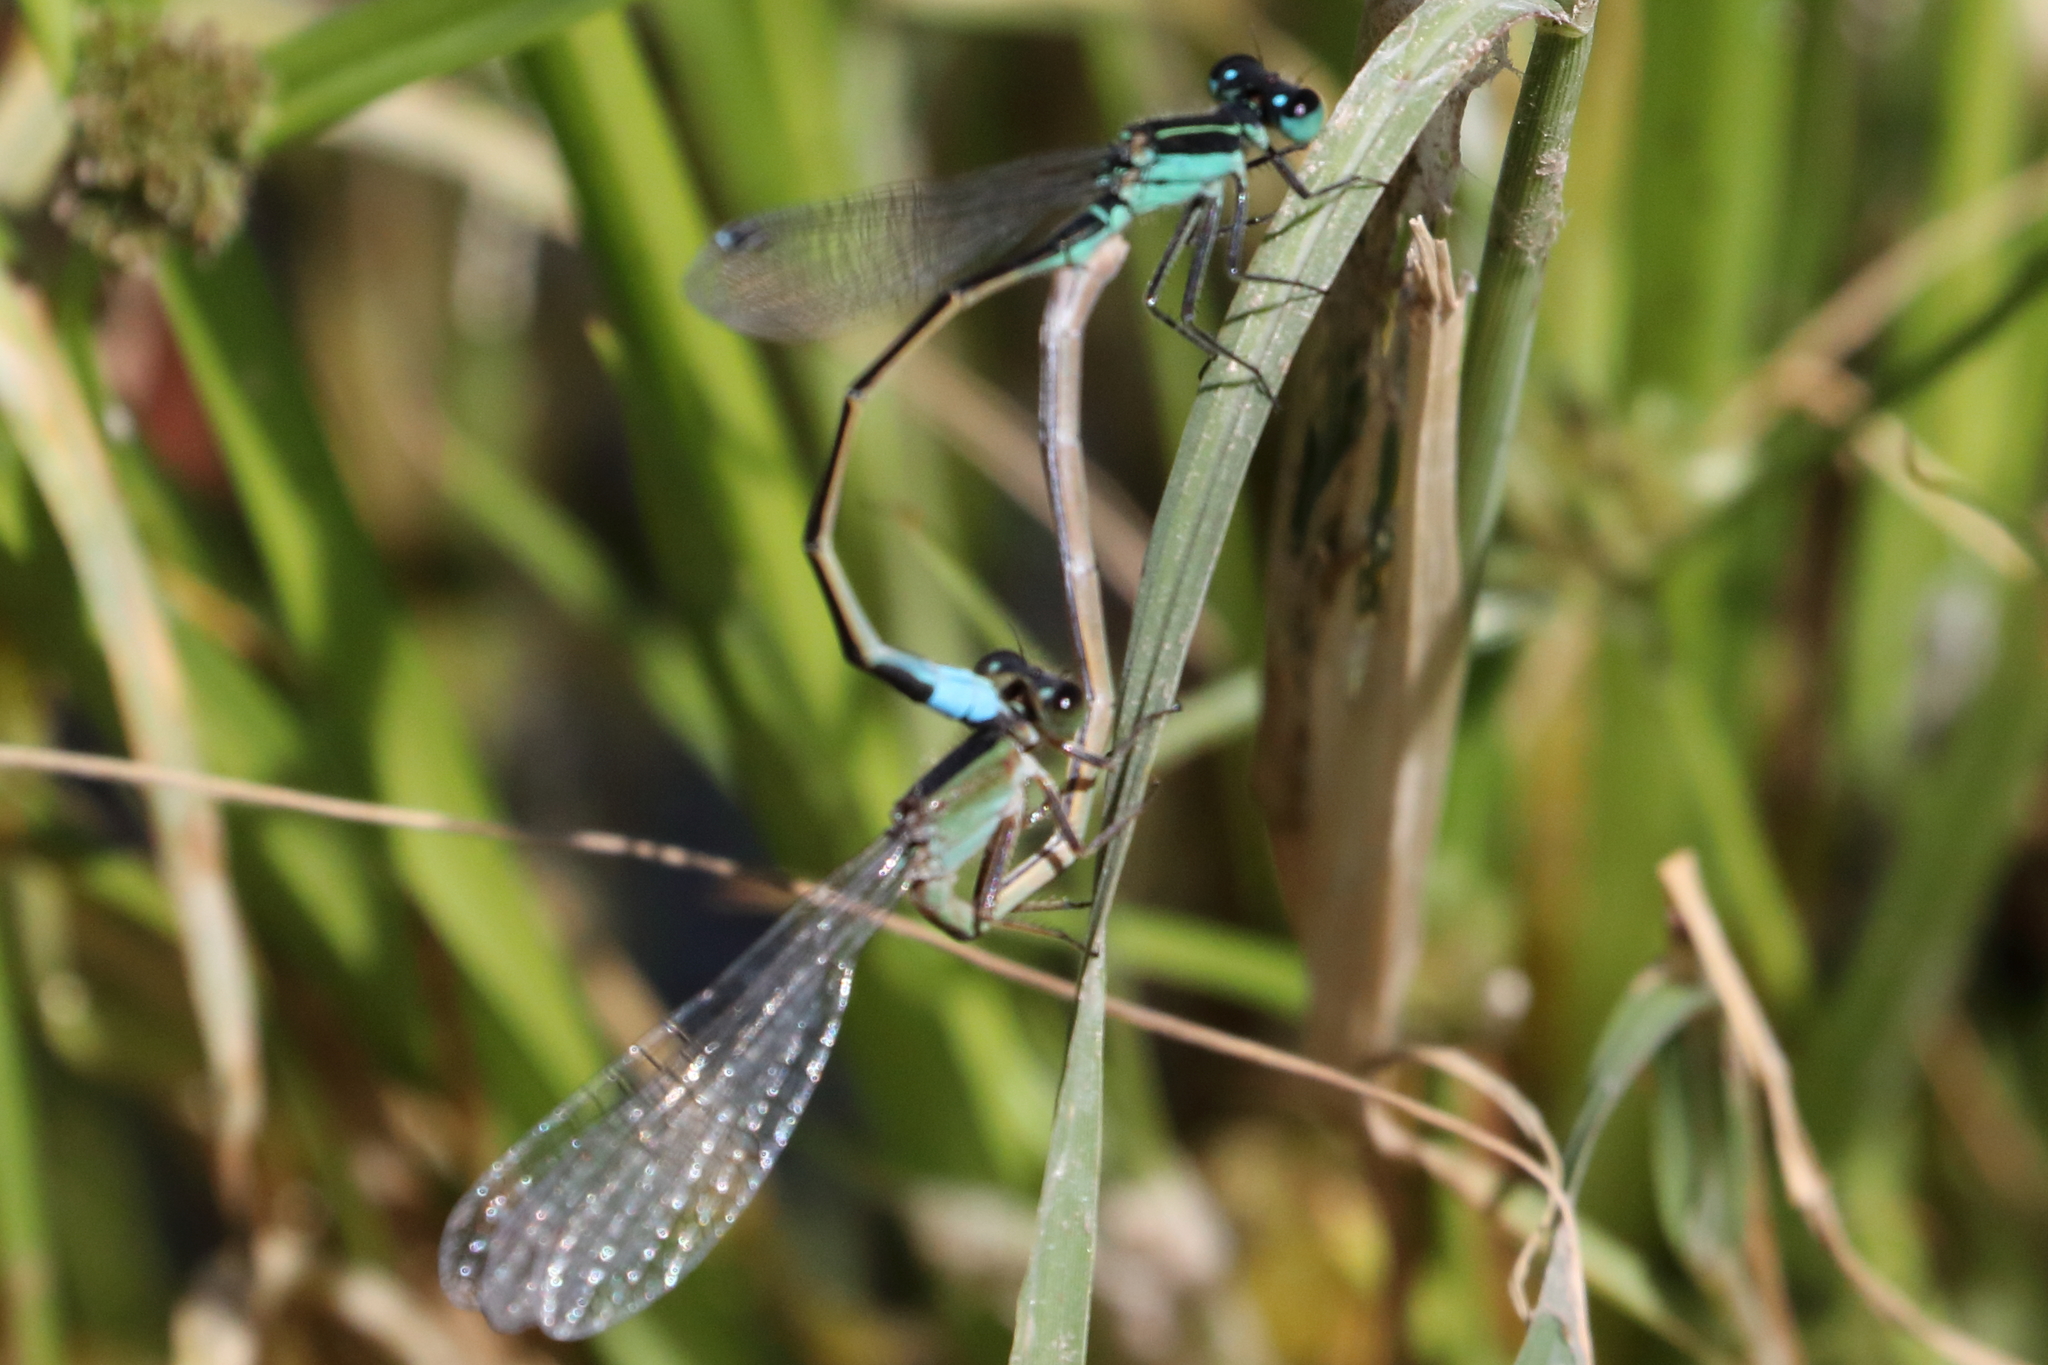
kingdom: Animalia
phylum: Arthropoda
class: Insecta
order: Odonata
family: Coenagrionidae
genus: Ischnura
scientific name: Ischnura ramburii
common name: Rambur's forktail
